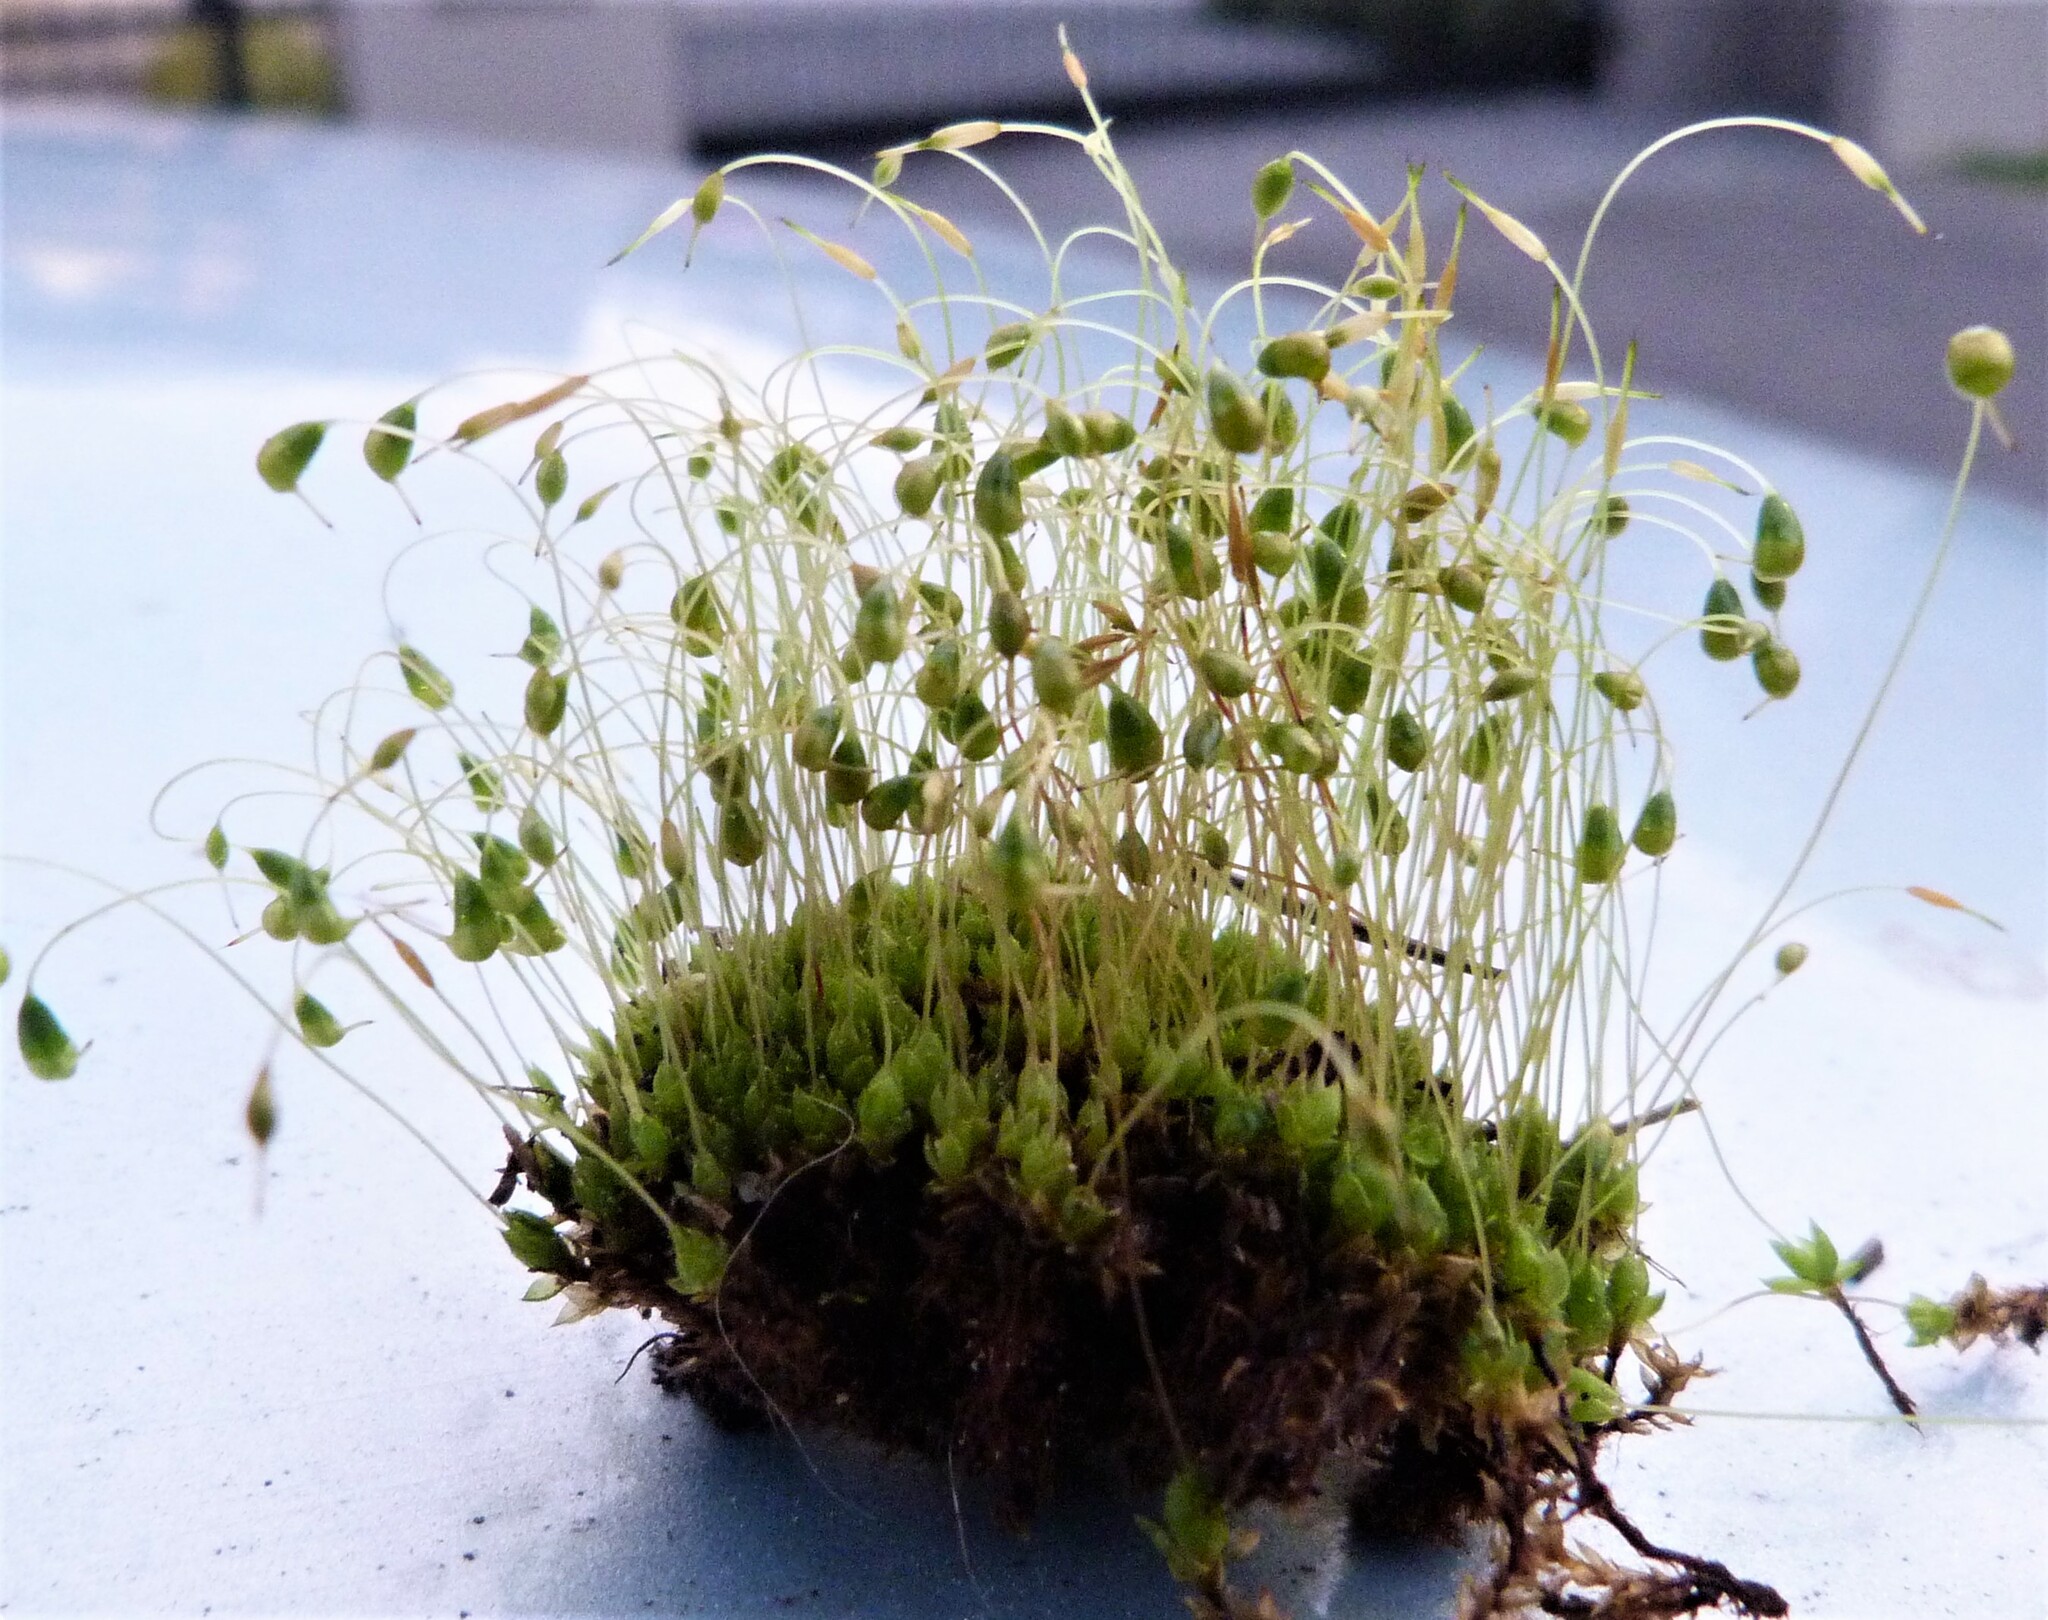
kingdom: Plantae
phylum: Bryophyta
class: Bryopsida
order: Funariales
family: Funariaceae
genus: Funaria
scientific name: Funaria hygrometrica
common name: Common cord moss
